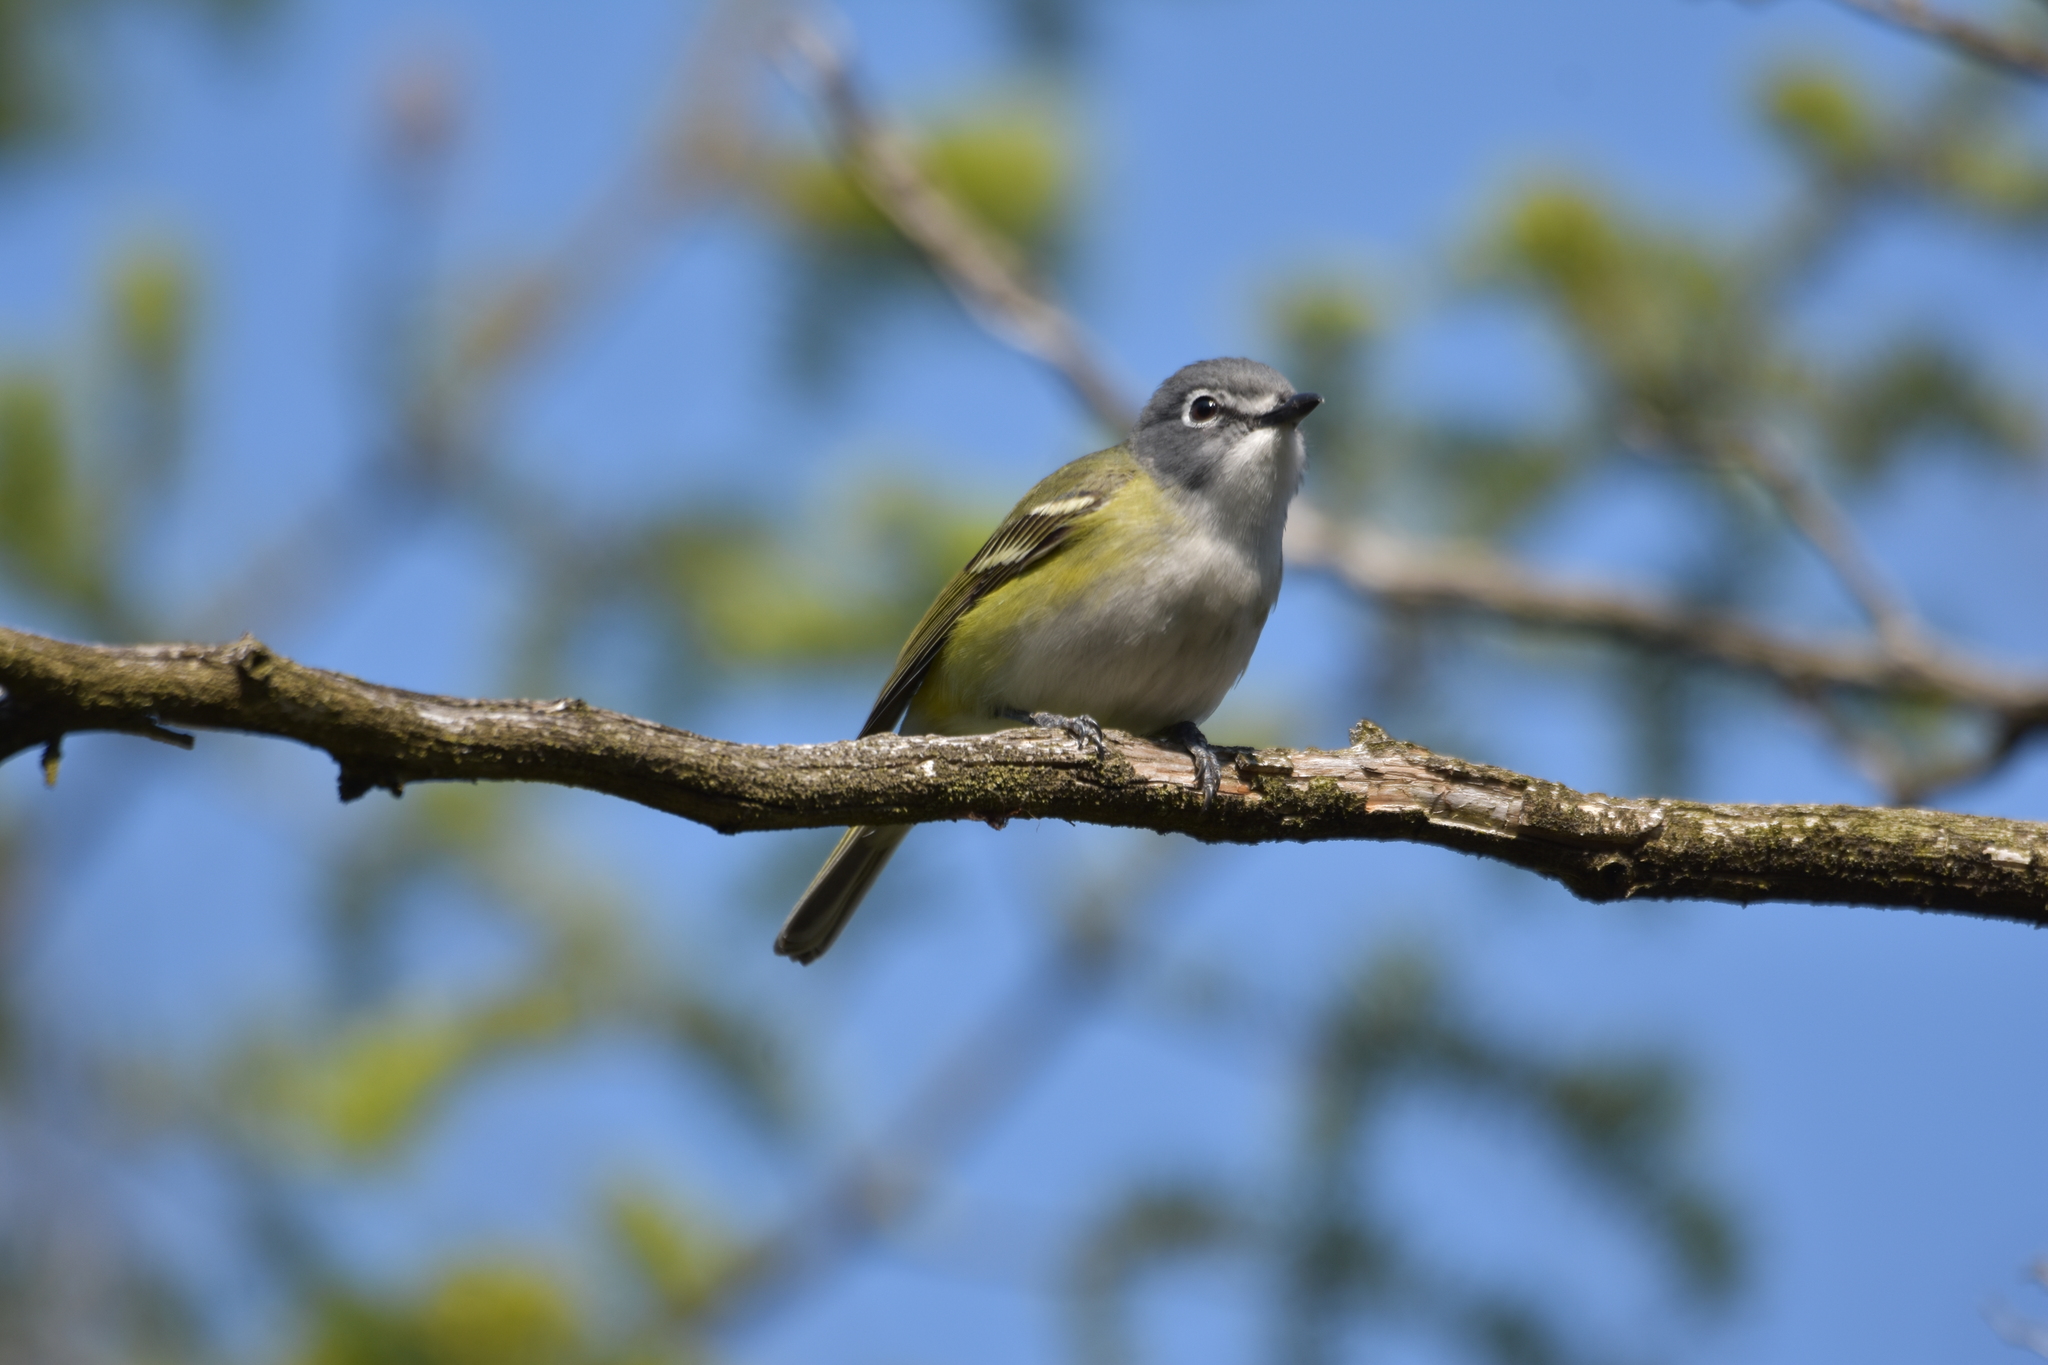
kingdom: Animalia
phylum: Chordata
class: Aves
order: Passeriformes
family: Vireonidae
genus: Vireo
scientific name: Vireo solitarius
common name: Blue-headed vireo
